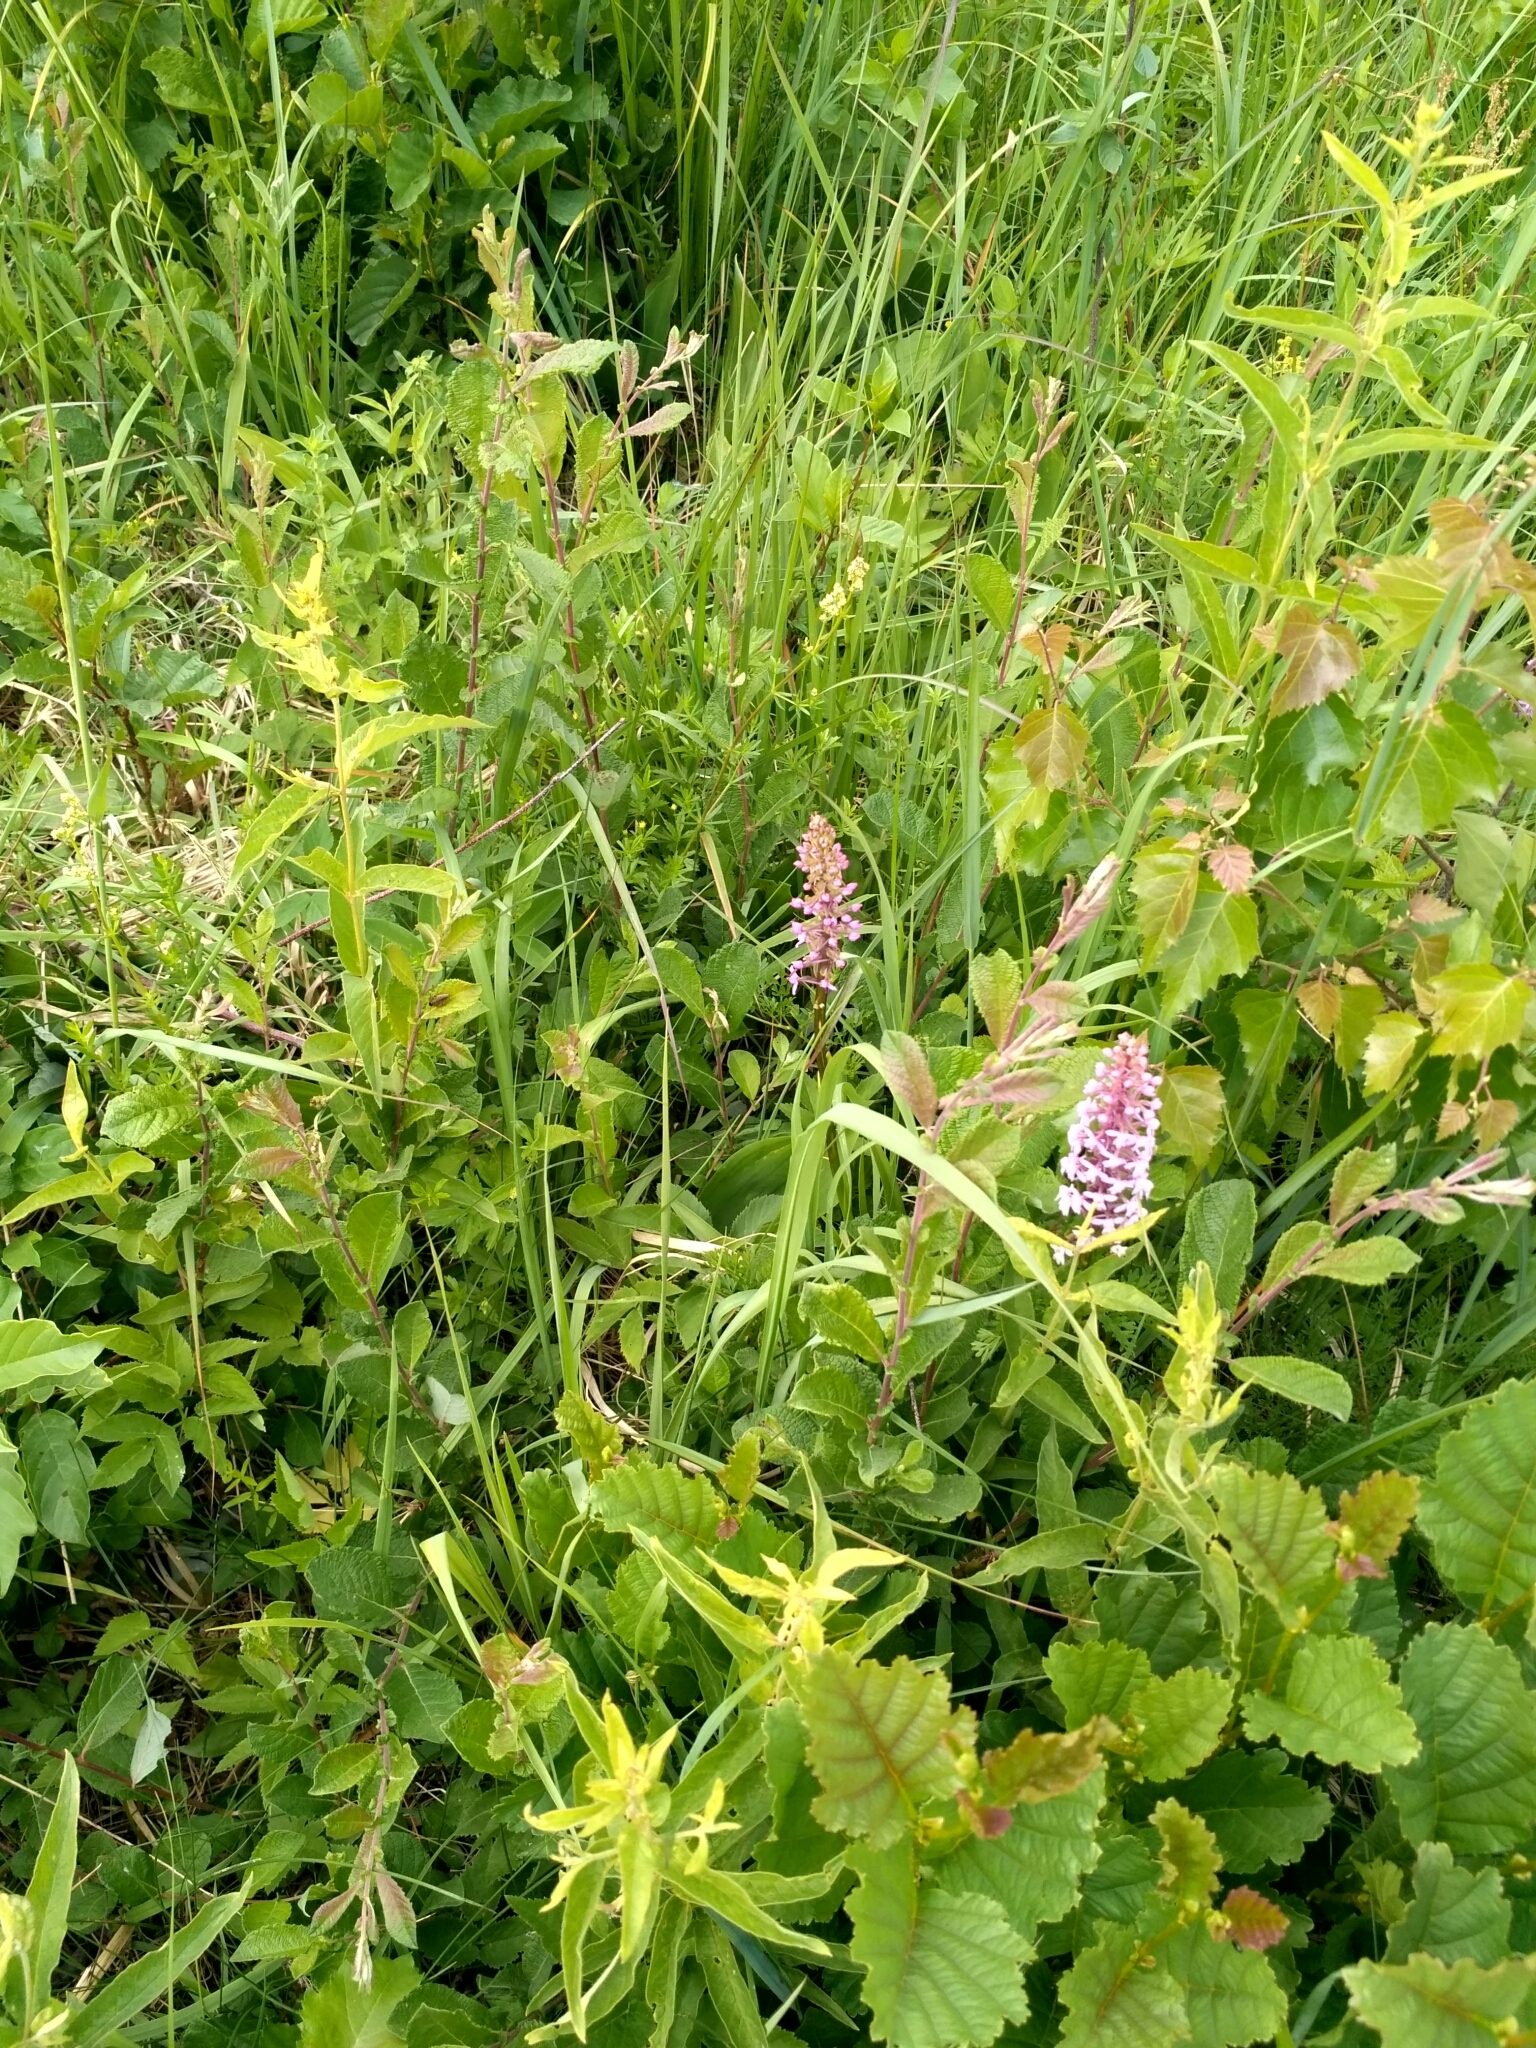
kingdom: Plantae
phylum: Tracheophyta
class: Liliopsida
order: Asparagales
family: Orchidaceae
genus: Gymnadenia
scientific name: Gymnadenia conopsea
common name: Fragrant orchid
